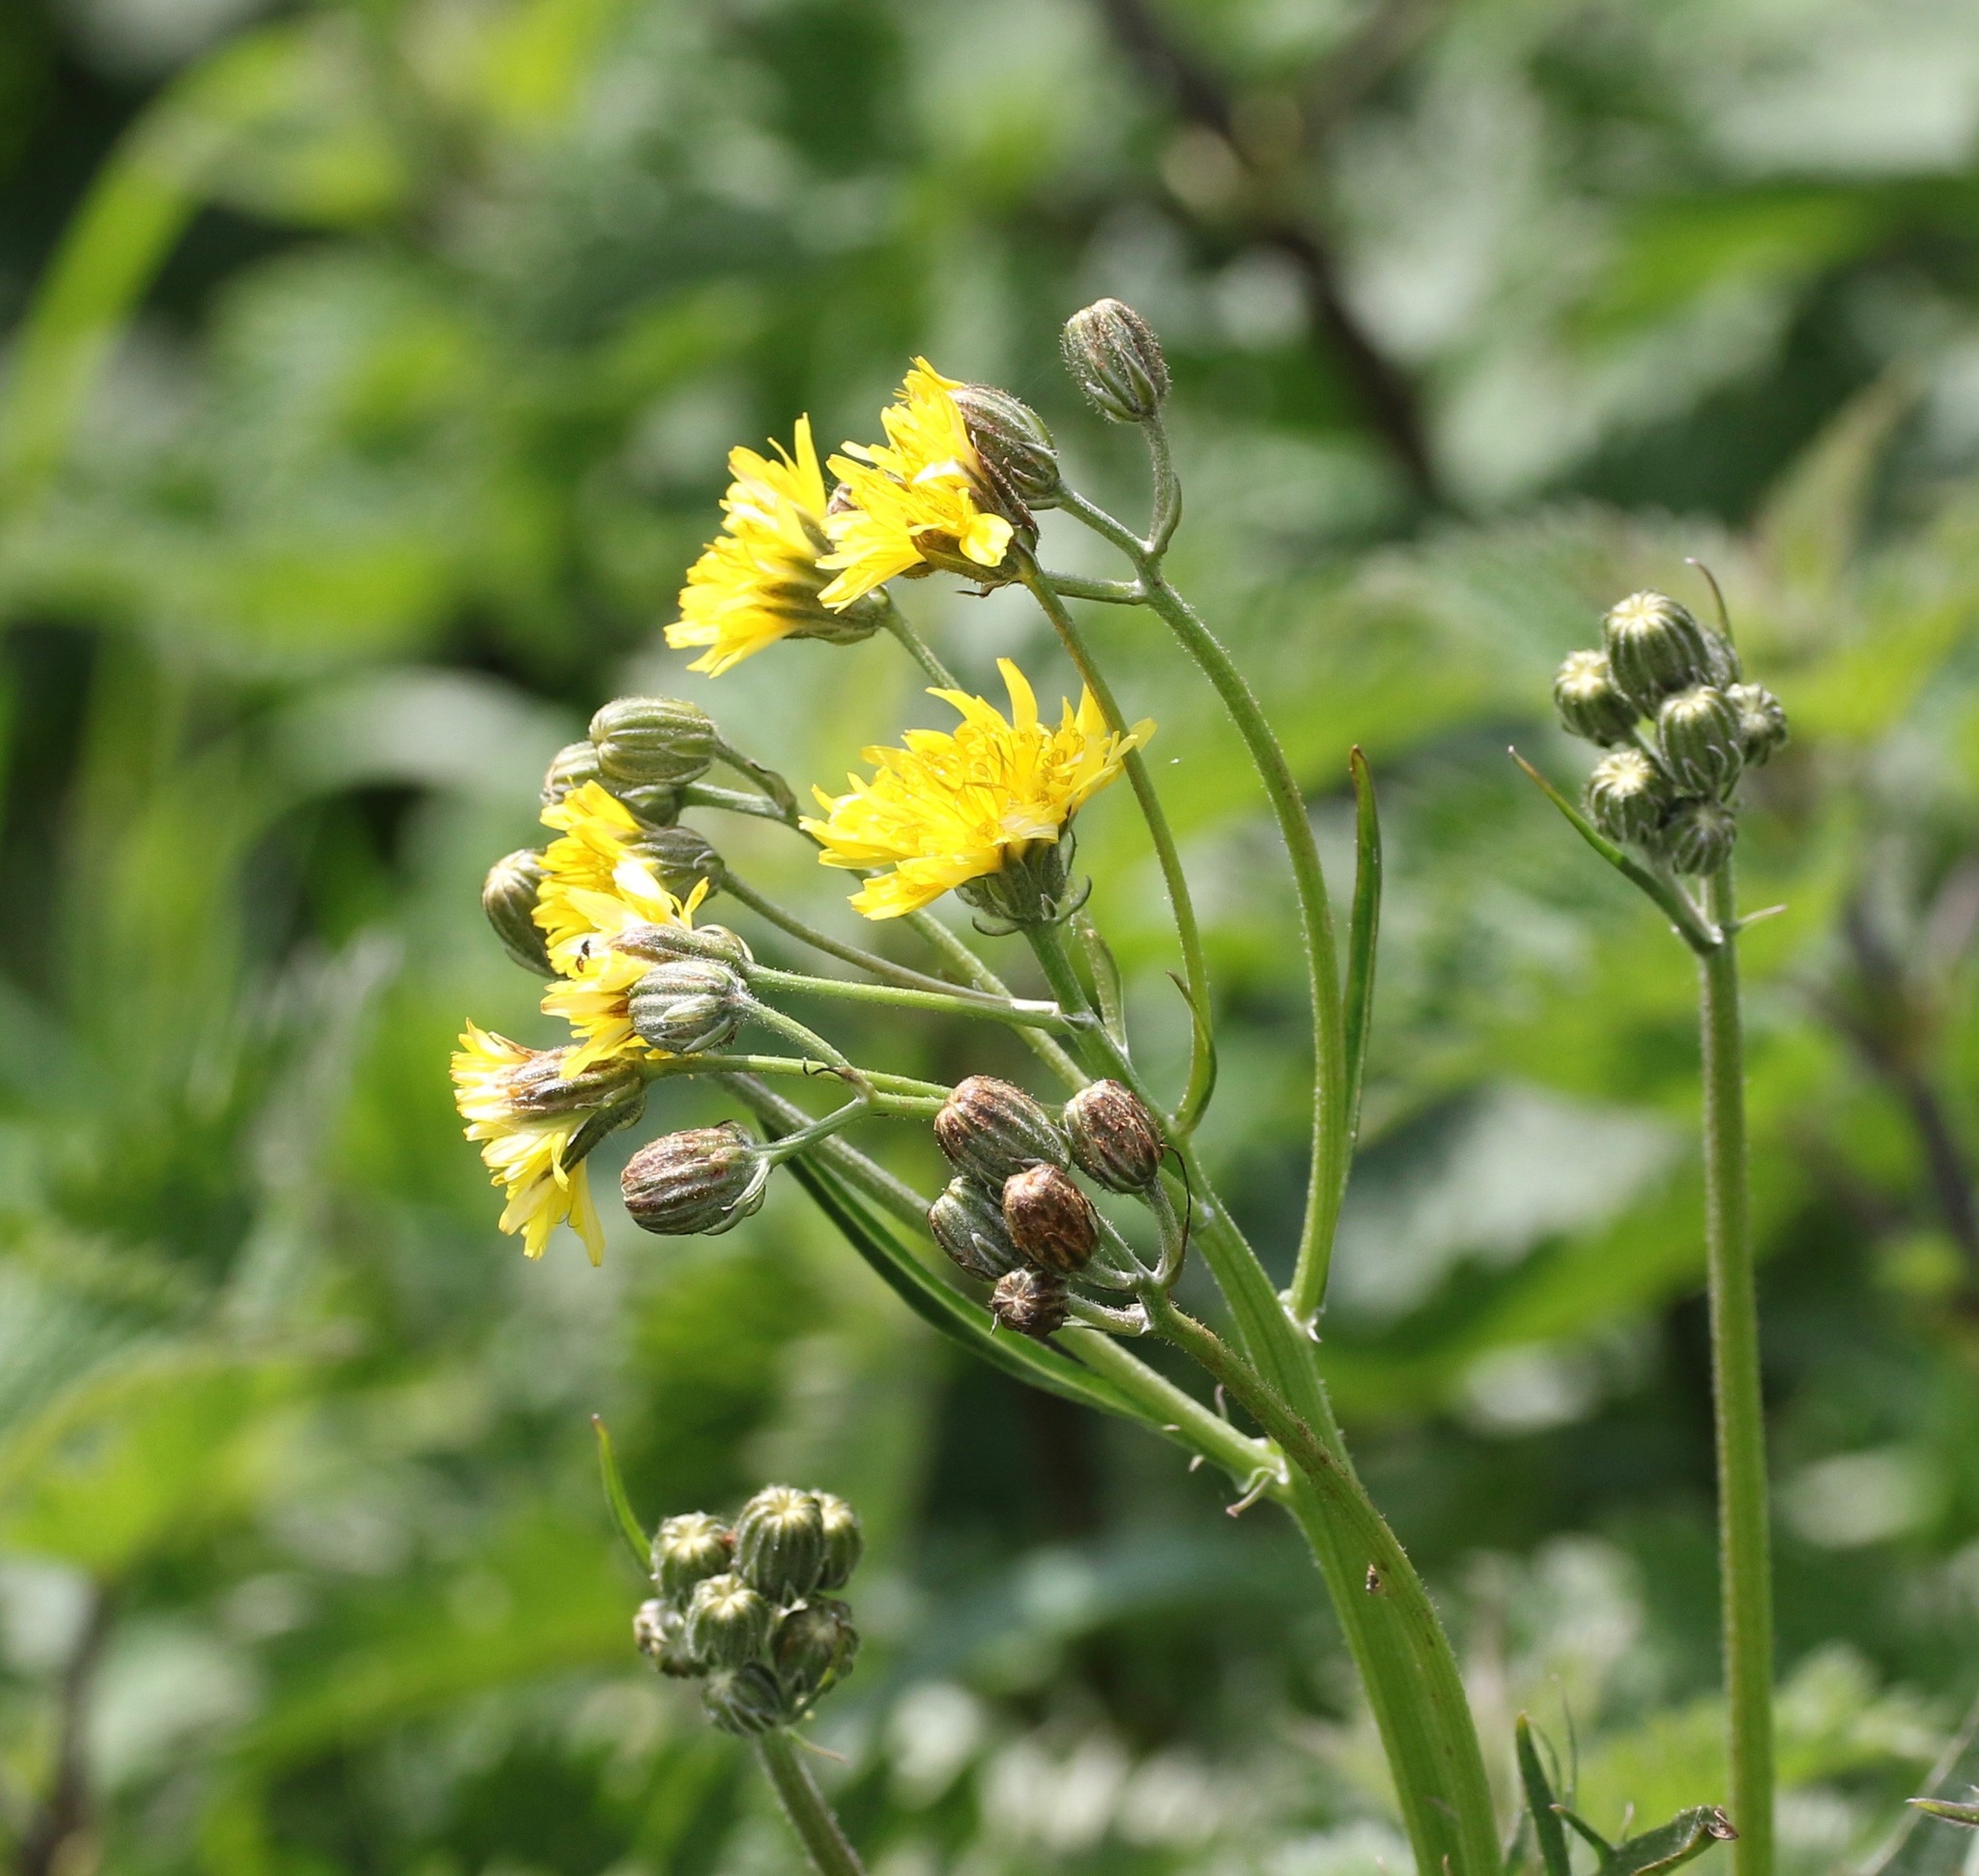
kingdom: Plantae
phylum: Tracheophyta
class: Magnoliopsida
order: Asterales
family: Asteraceae
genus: Crepis
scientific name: Crepis biennis
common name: Rough hawk's-beard
